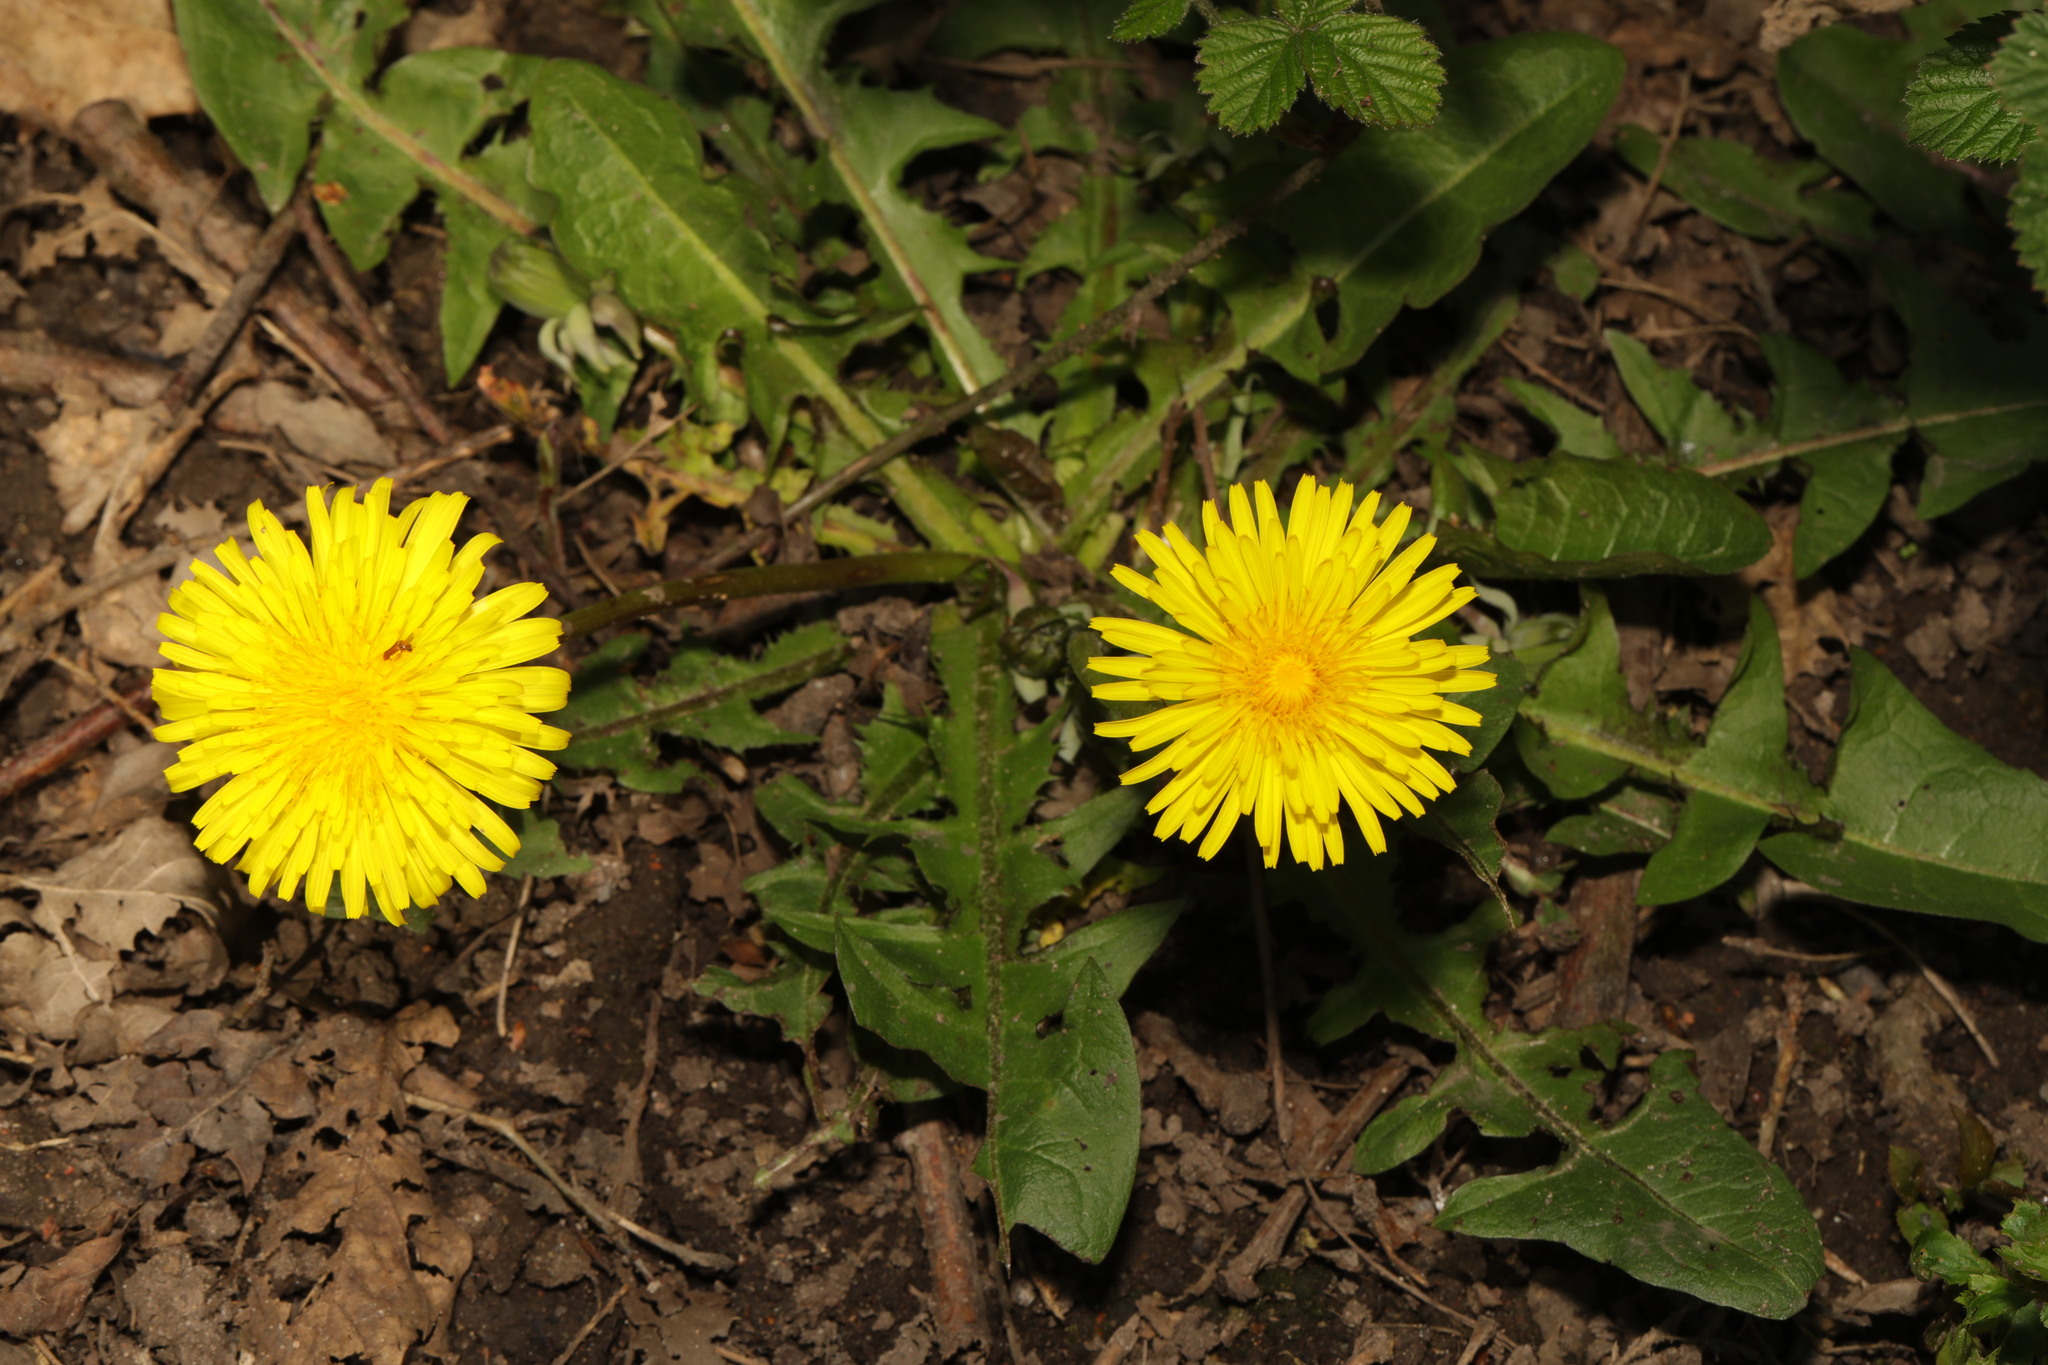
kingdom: Plantae
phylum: Tracheophyta
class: Magnoliopsida
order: Asterales
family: Asteraceae
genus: Taraxacum
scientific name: Taraxacum officinale
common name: Common dandelion
